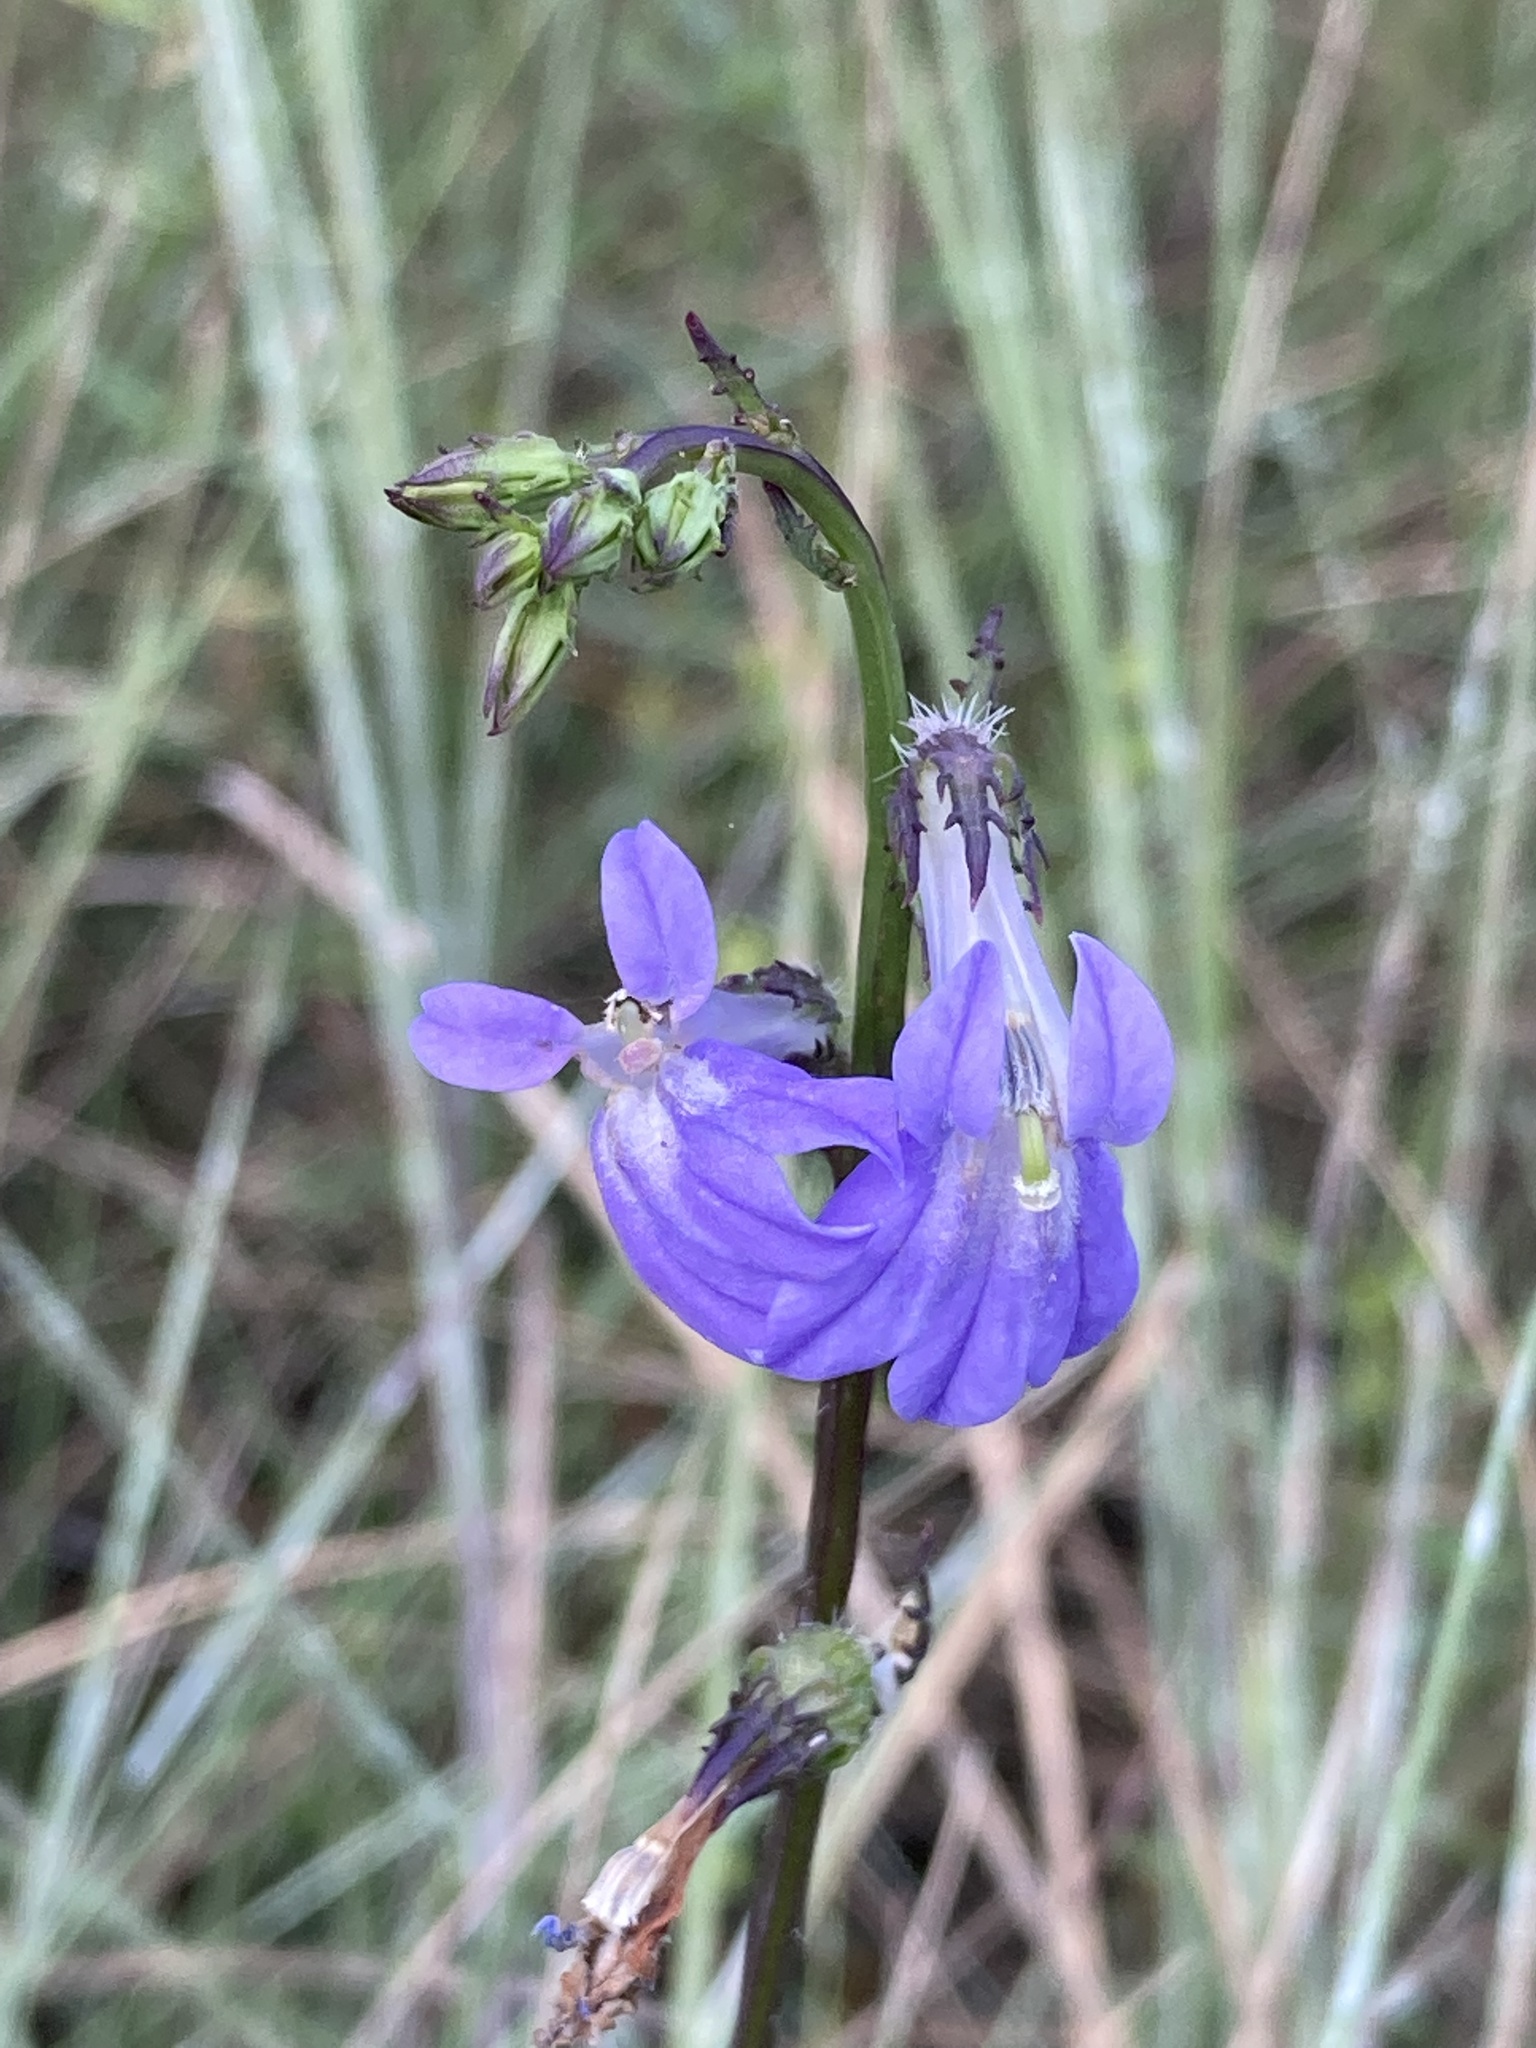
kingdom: Plantae
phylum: Tracheophyta
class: Magnoliopsida
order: Asterales
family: Campanulaceae
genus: Lobelia
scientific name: Lobelia glandulosa
